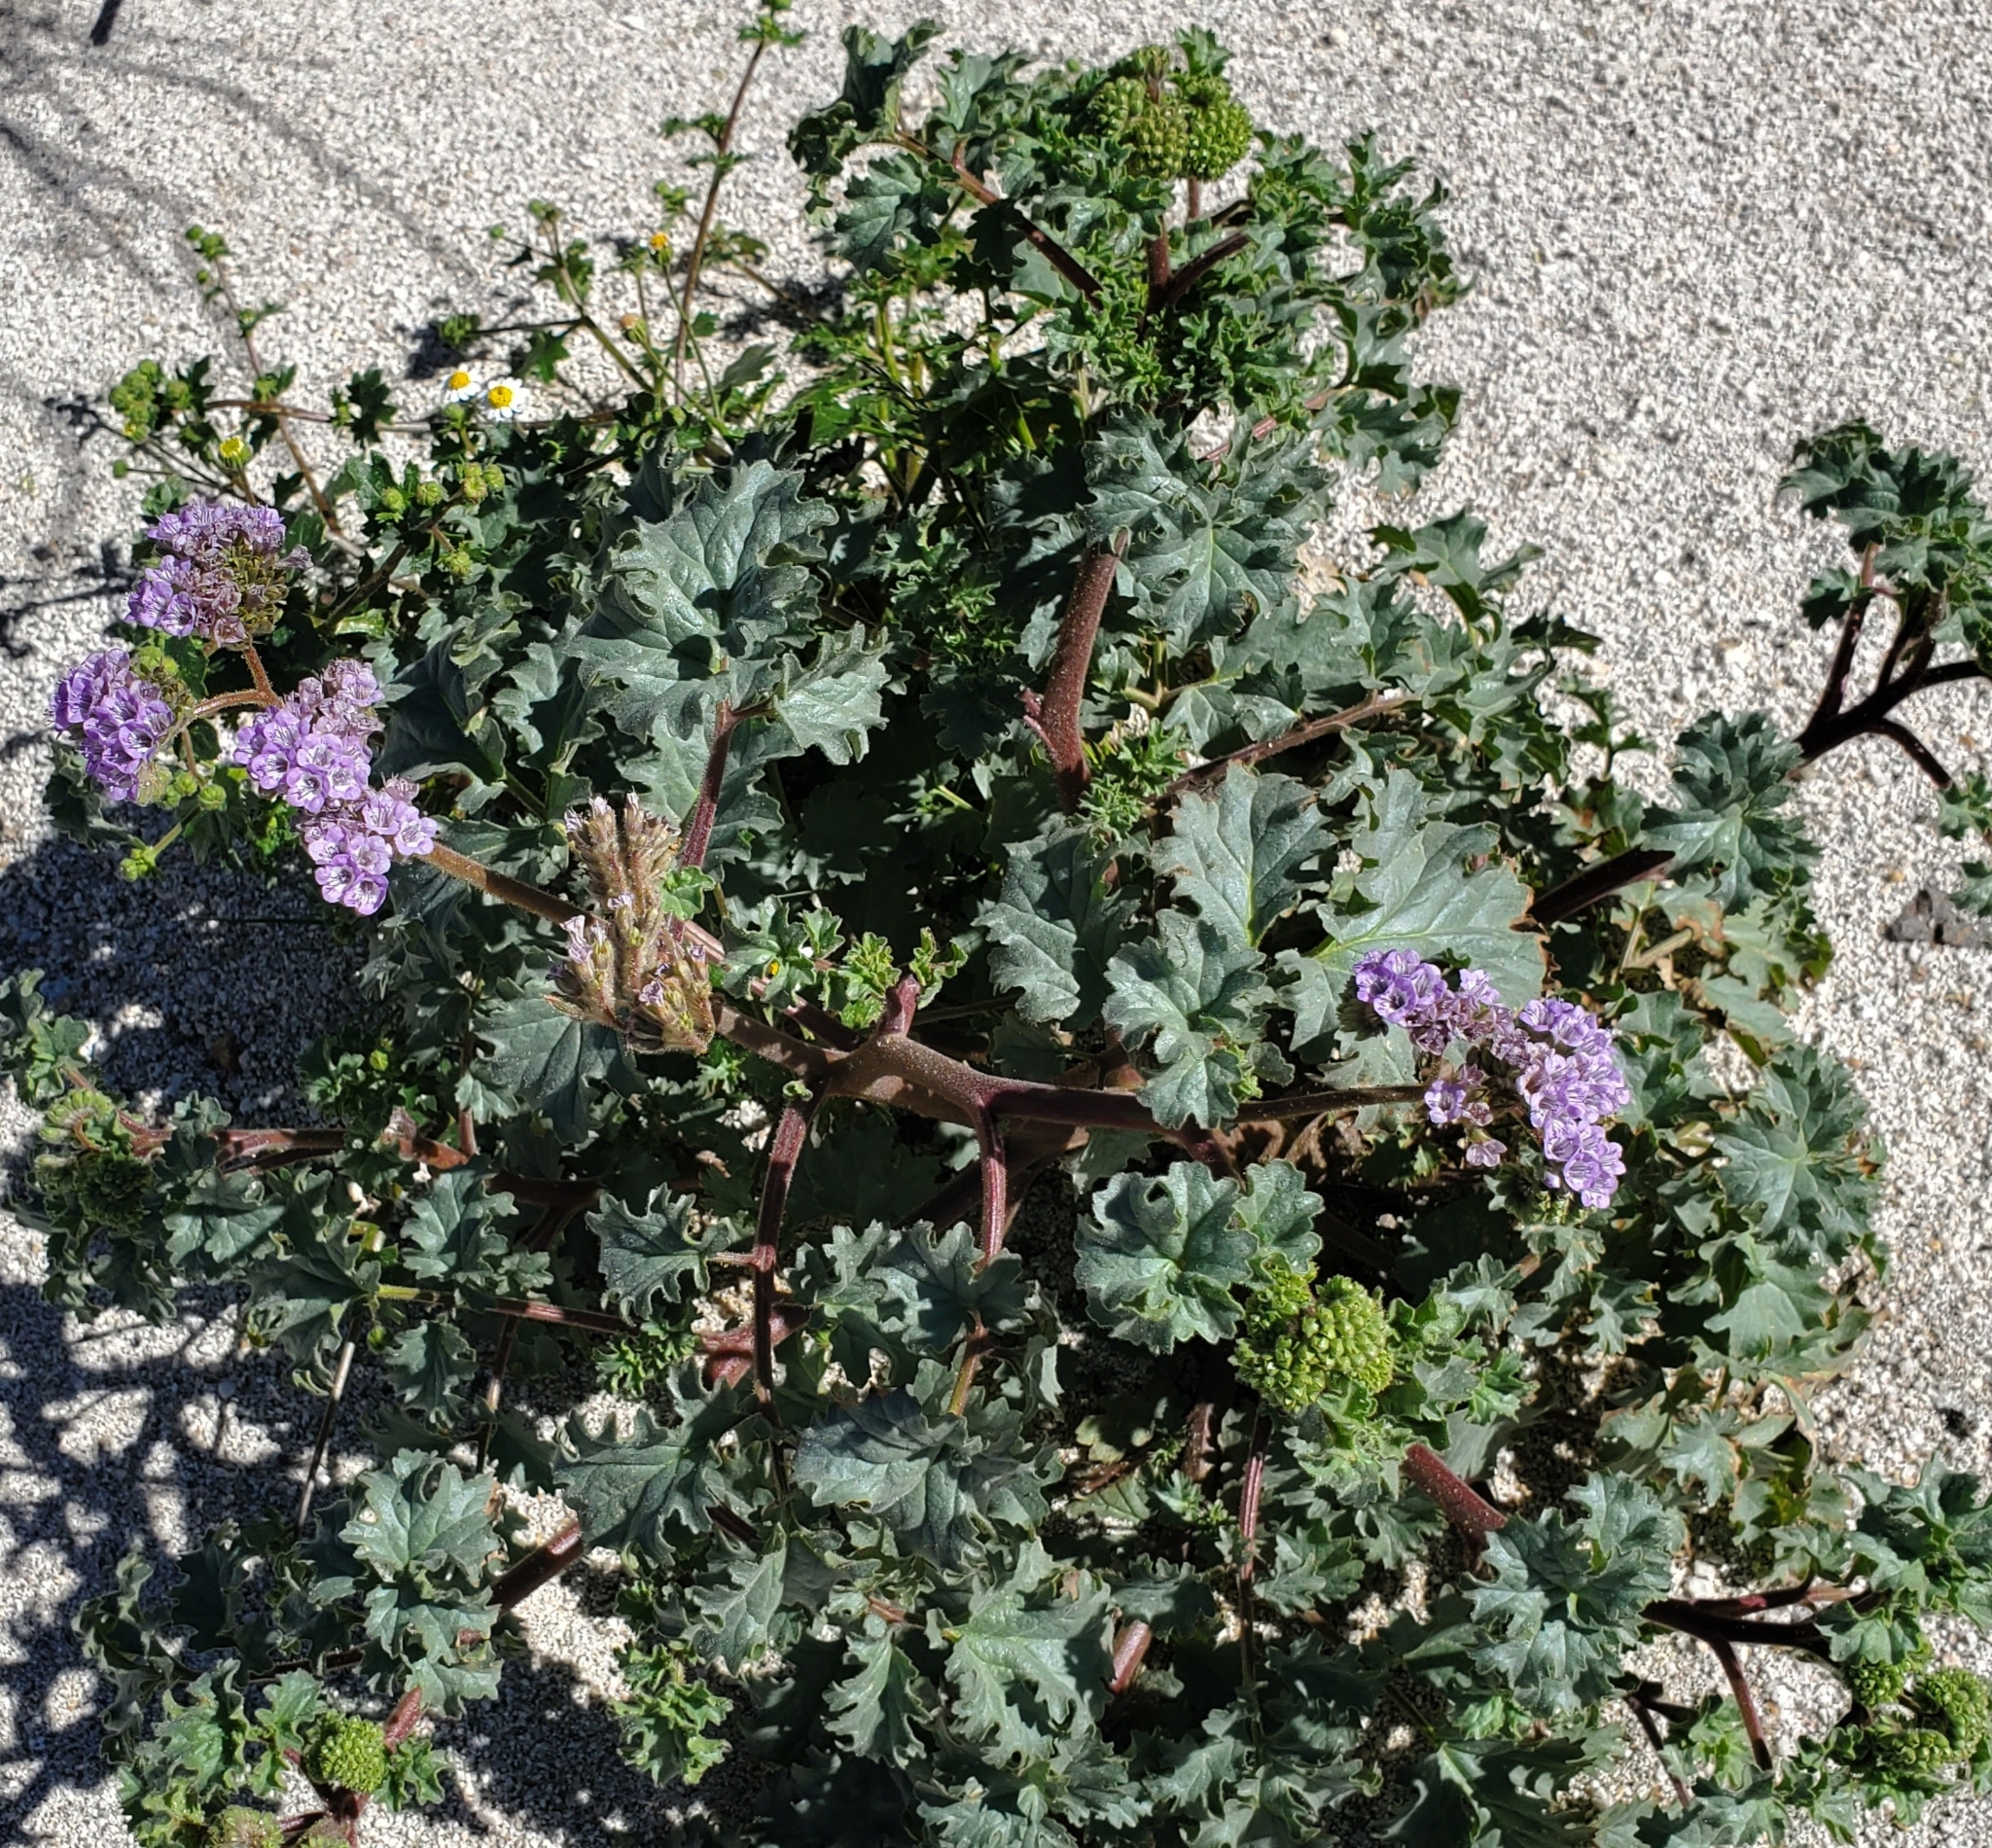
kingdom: Plantae
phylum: Tracheophyta
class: Magnoliopsida
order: Boraginales
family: Hydrophyllaceae
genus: Phacelia
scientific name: Phacelia pedicellata
